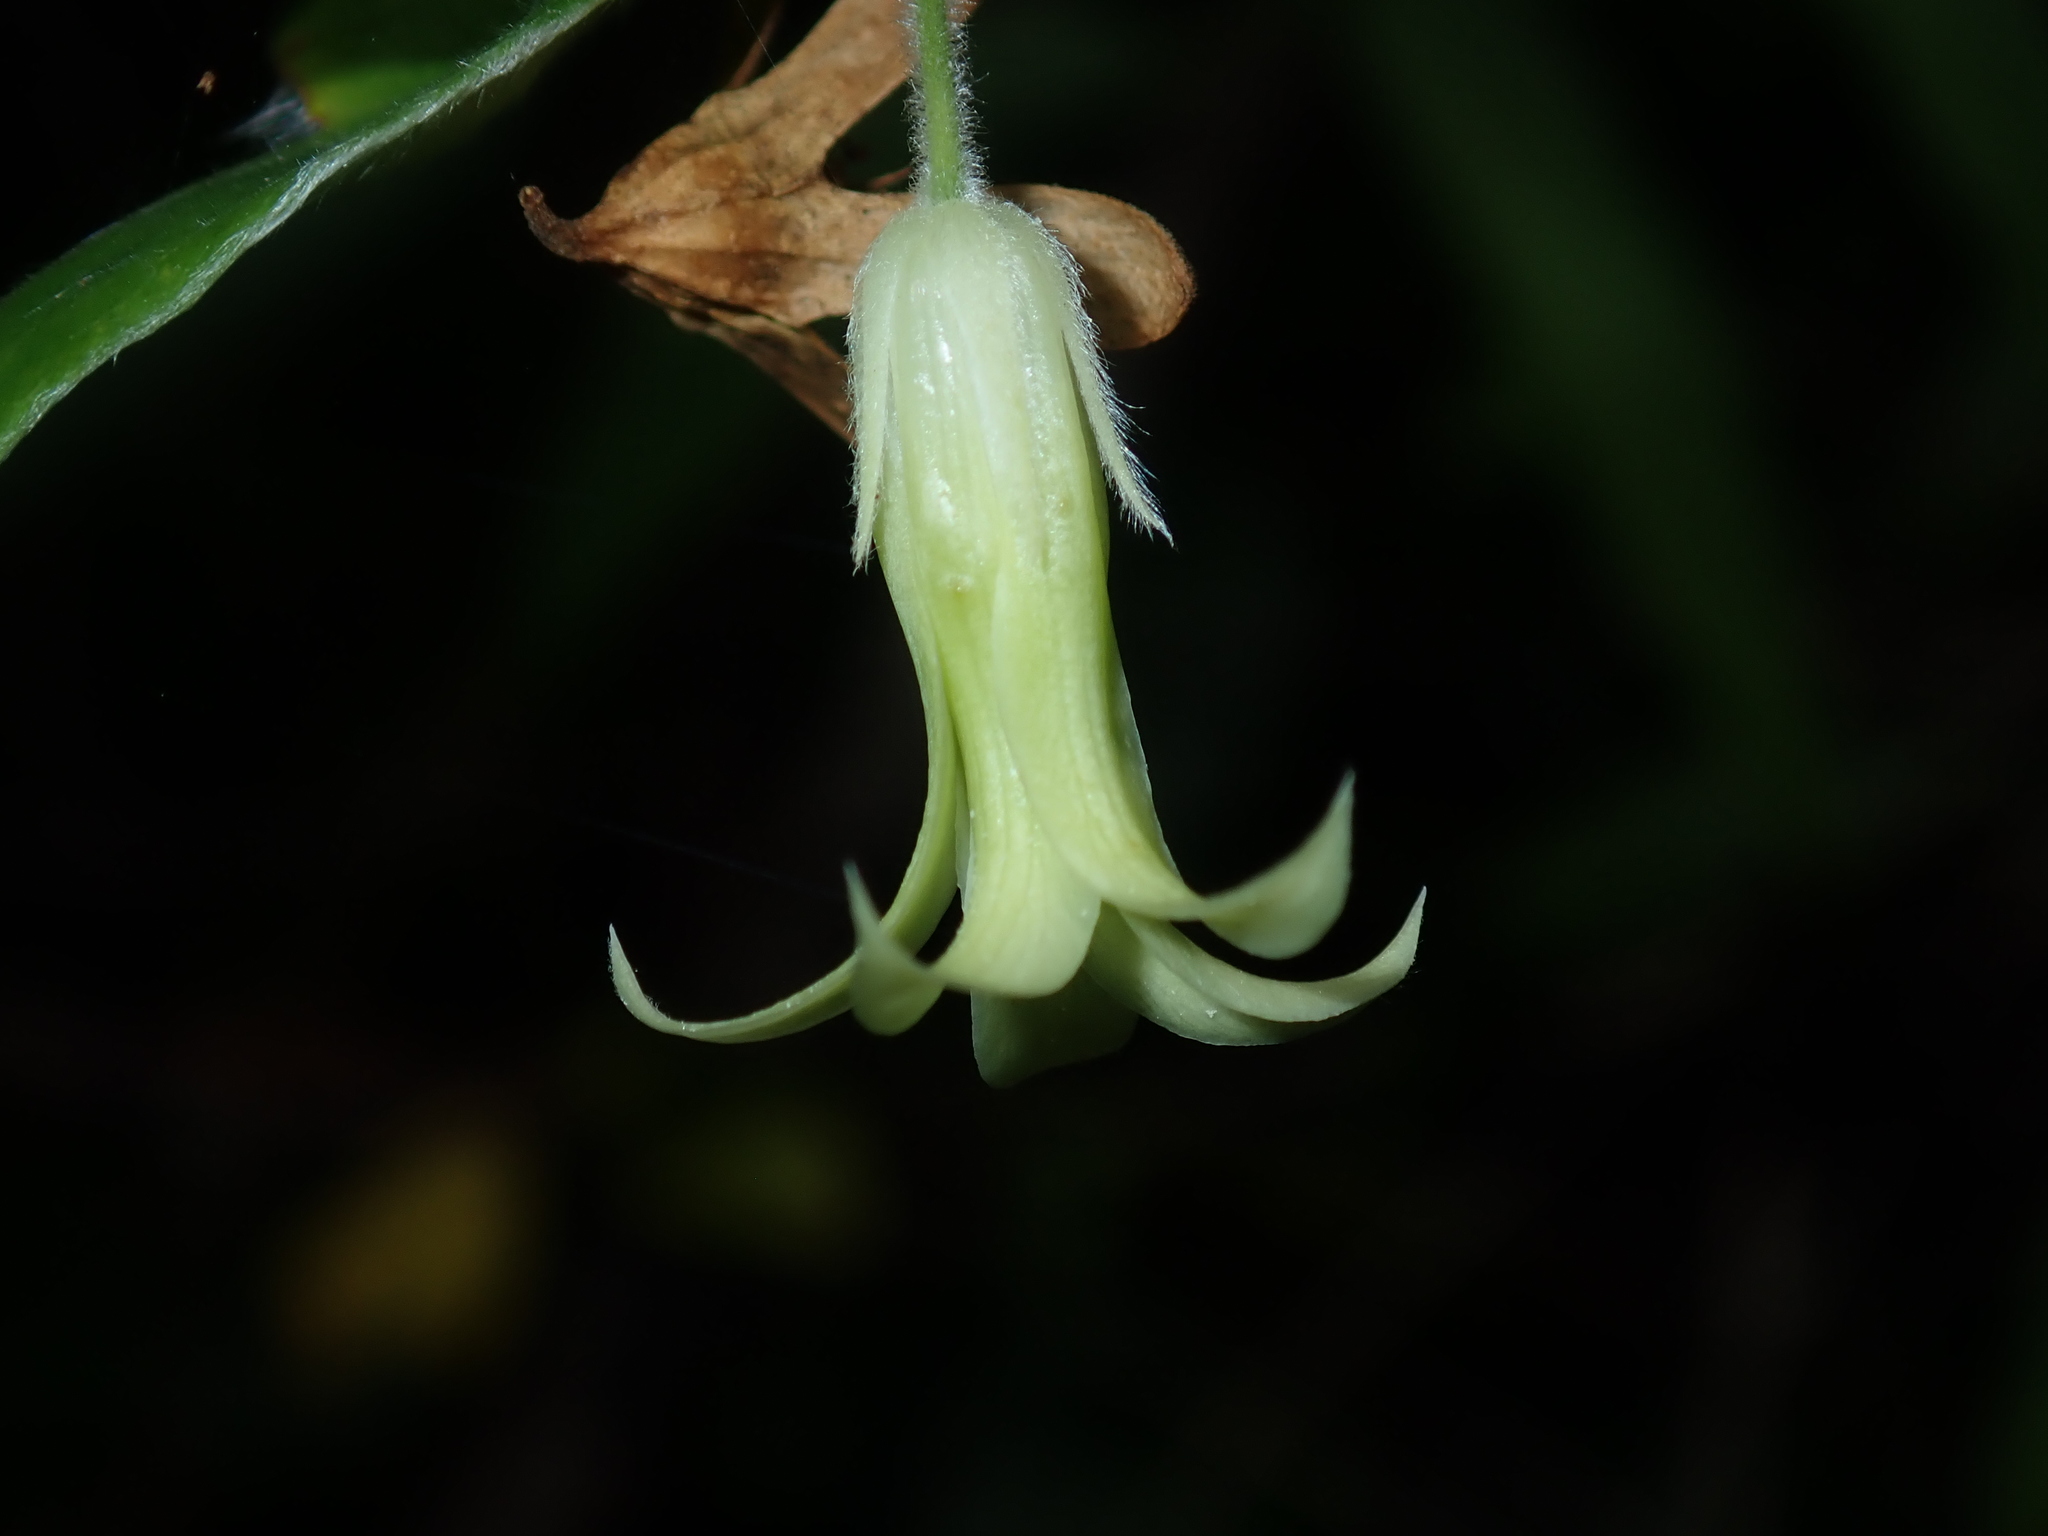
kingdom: Plantae
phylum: Tracheophyta
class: Magnoliopsida
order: Apiales
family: Pittosporaceae
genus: Billardiera
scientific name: Billardiera scandens
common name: Apple-berry
